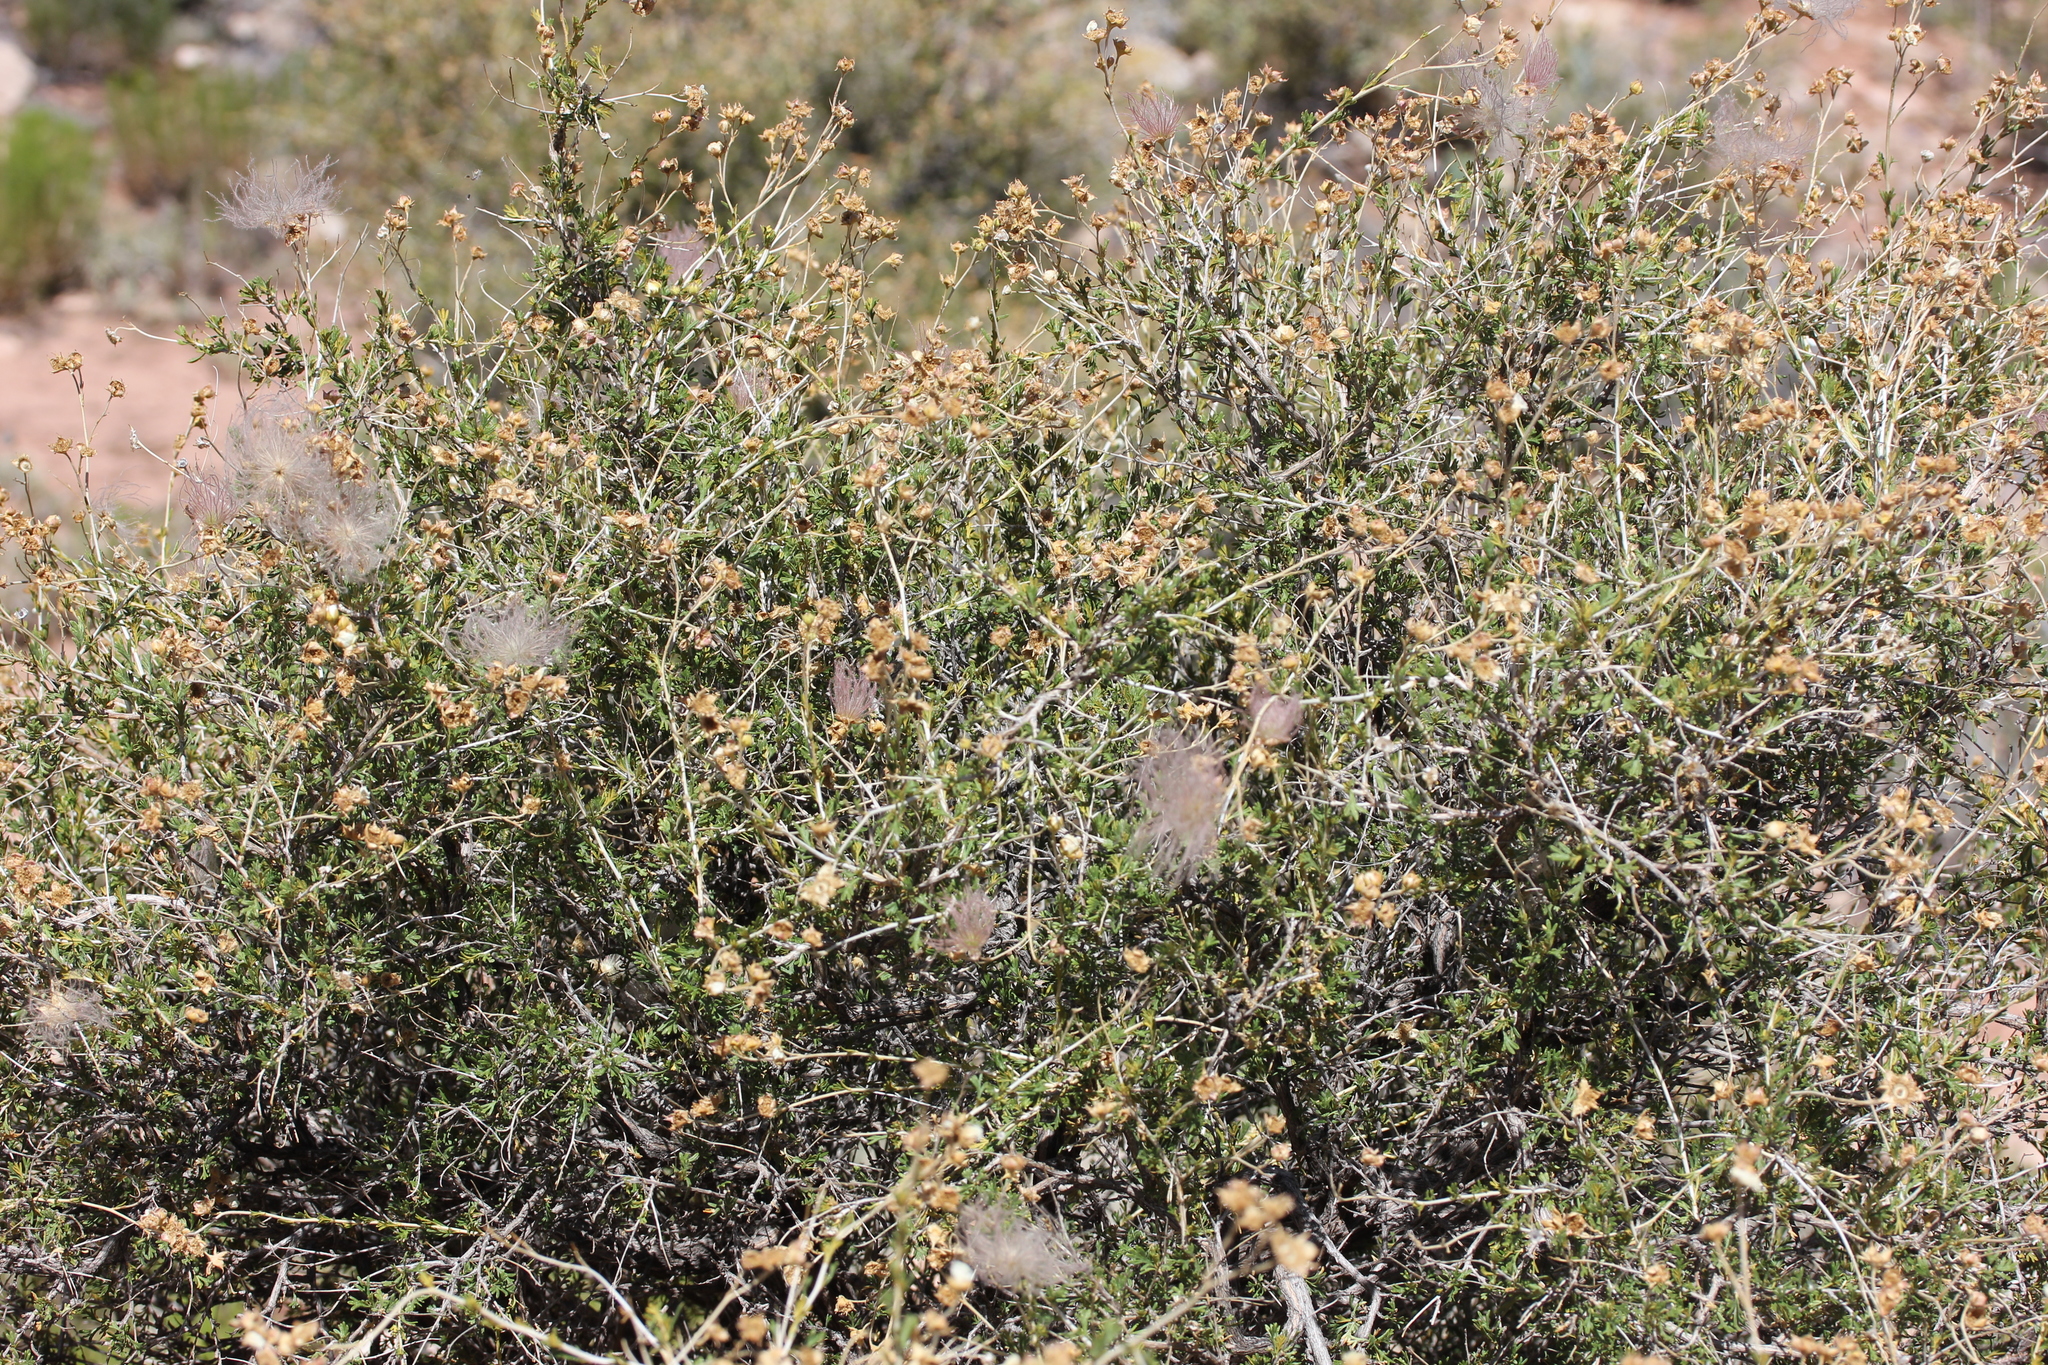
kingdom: Plantae
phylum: Tracheophyta
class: Magnoliopsida
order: Rosales
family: Rosaceae
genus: Fallugia
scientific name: Fallugia paradoxa
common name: Apache-plume
